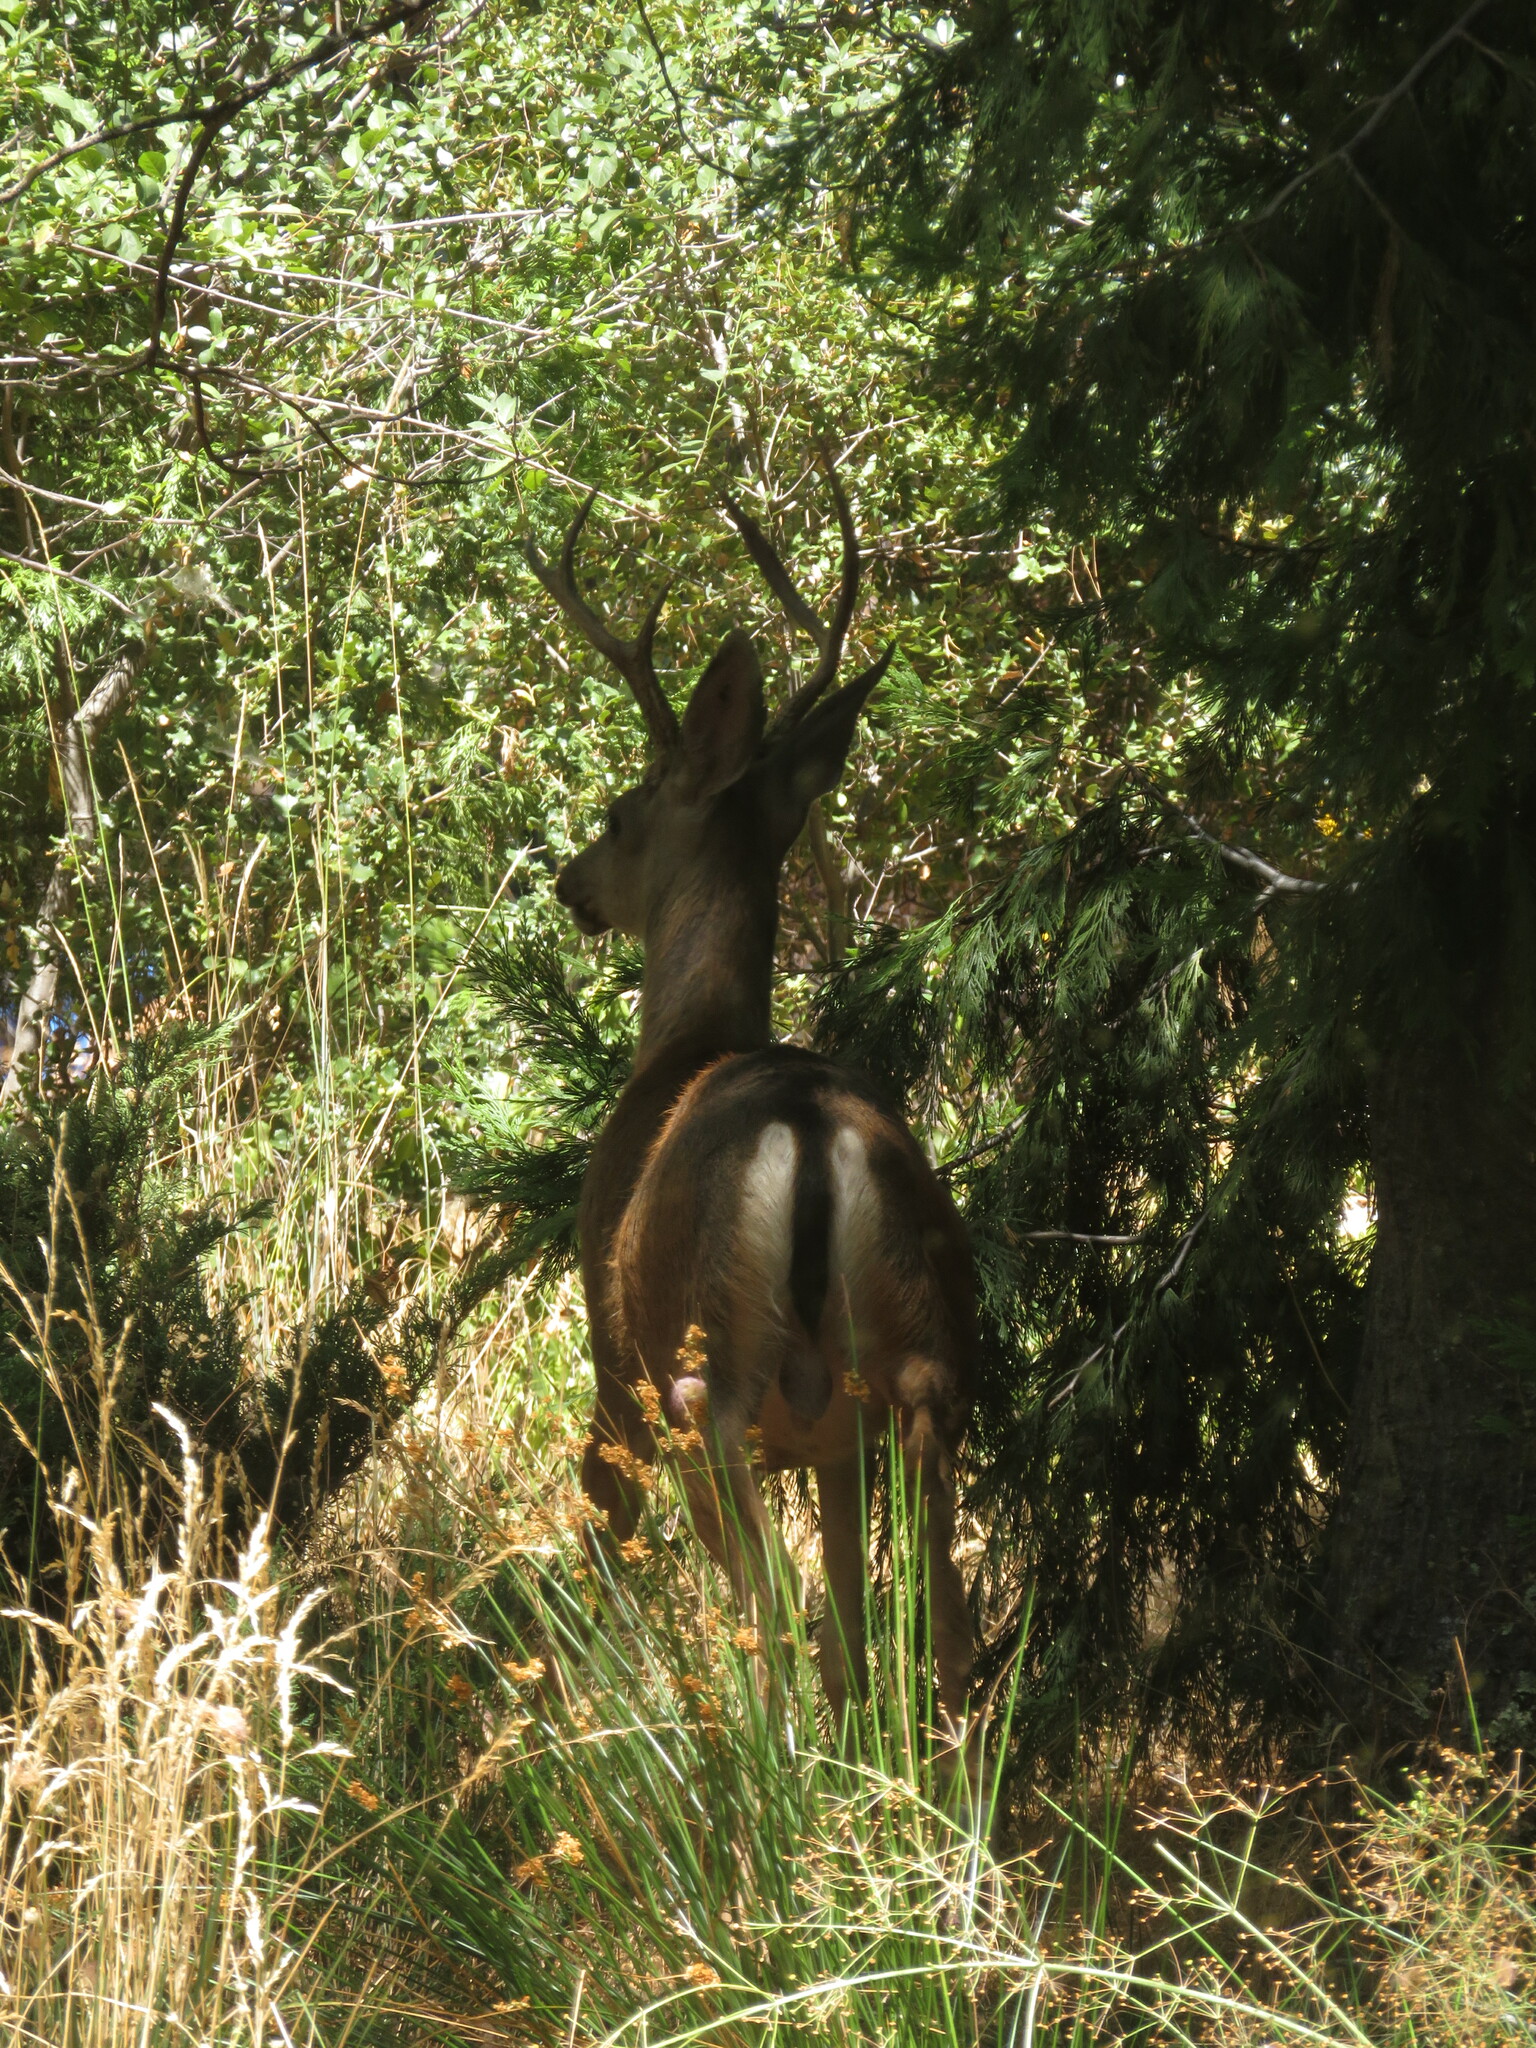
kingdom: Animalia
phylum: Chordata
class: Mammalia
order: Artiodactyla
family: Cervidae
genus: Odocoileus
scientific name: Odocoileus hemionus
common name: Mule deer
